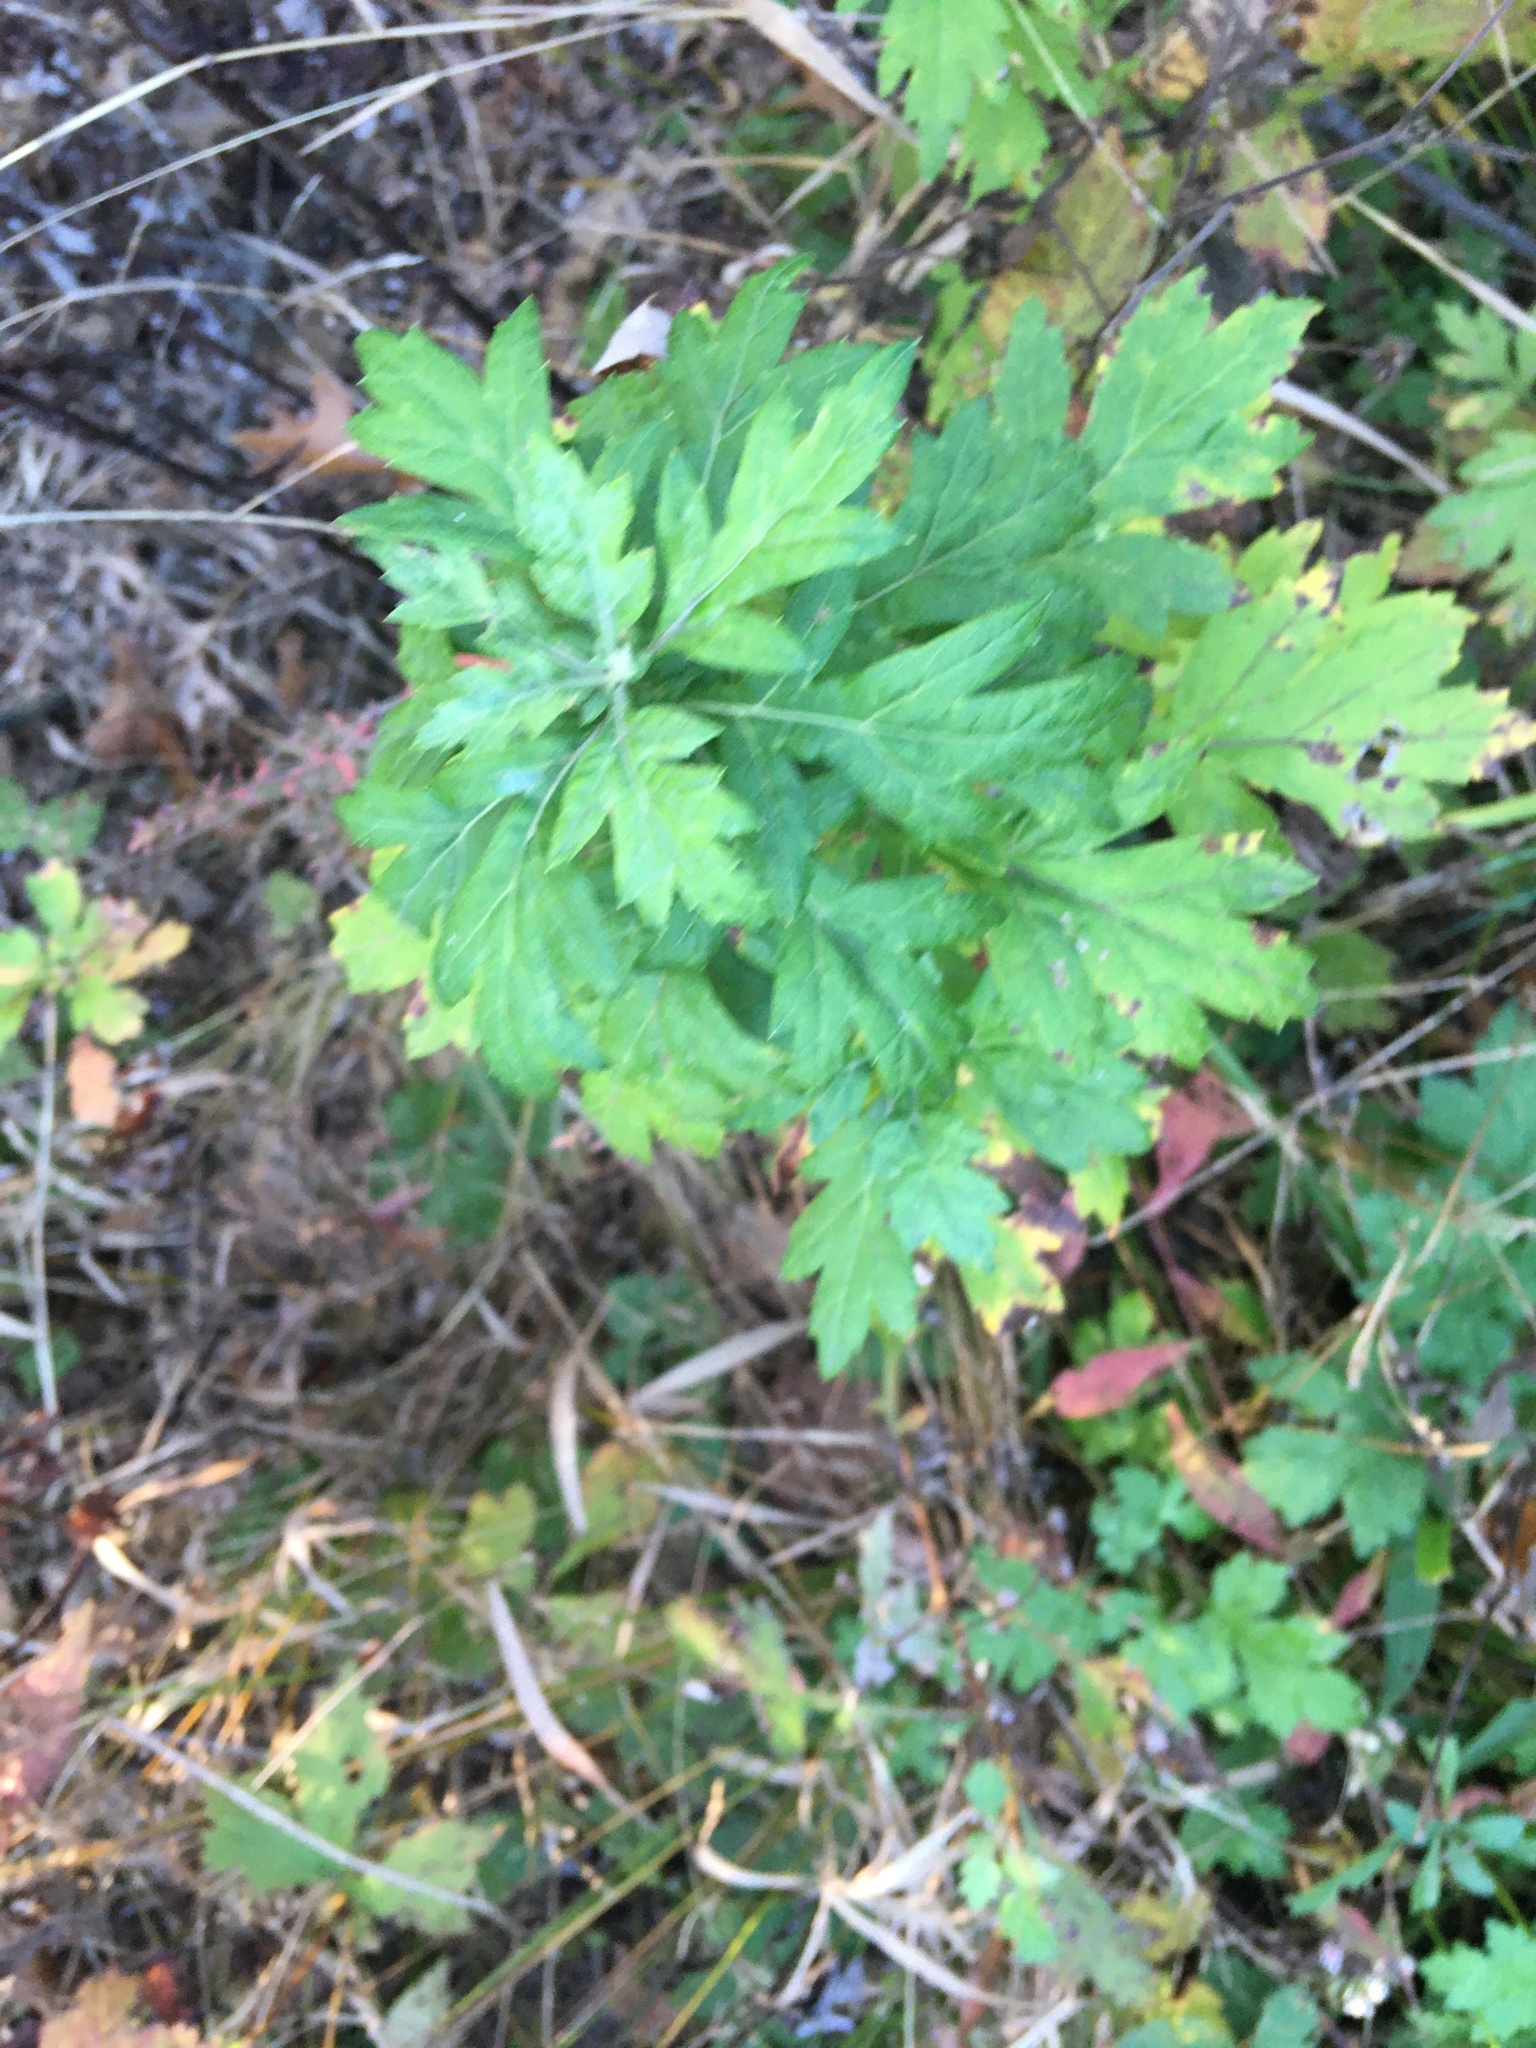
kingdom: Plantae
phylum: Tracheophyta
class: Magnoliopsida
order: Asterales
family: Asteraceae
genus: Artemisia
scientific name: Artemisia vulgaris
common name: Mugwort
